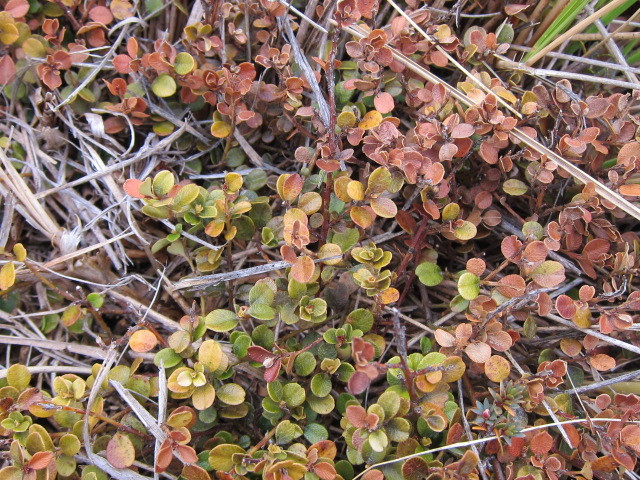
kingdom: Plantae
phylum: Tracheophyta
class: Magnoliopsida
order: Ericales
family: Primulaceae
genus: Myrsine
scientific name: Myrsine nummularia
